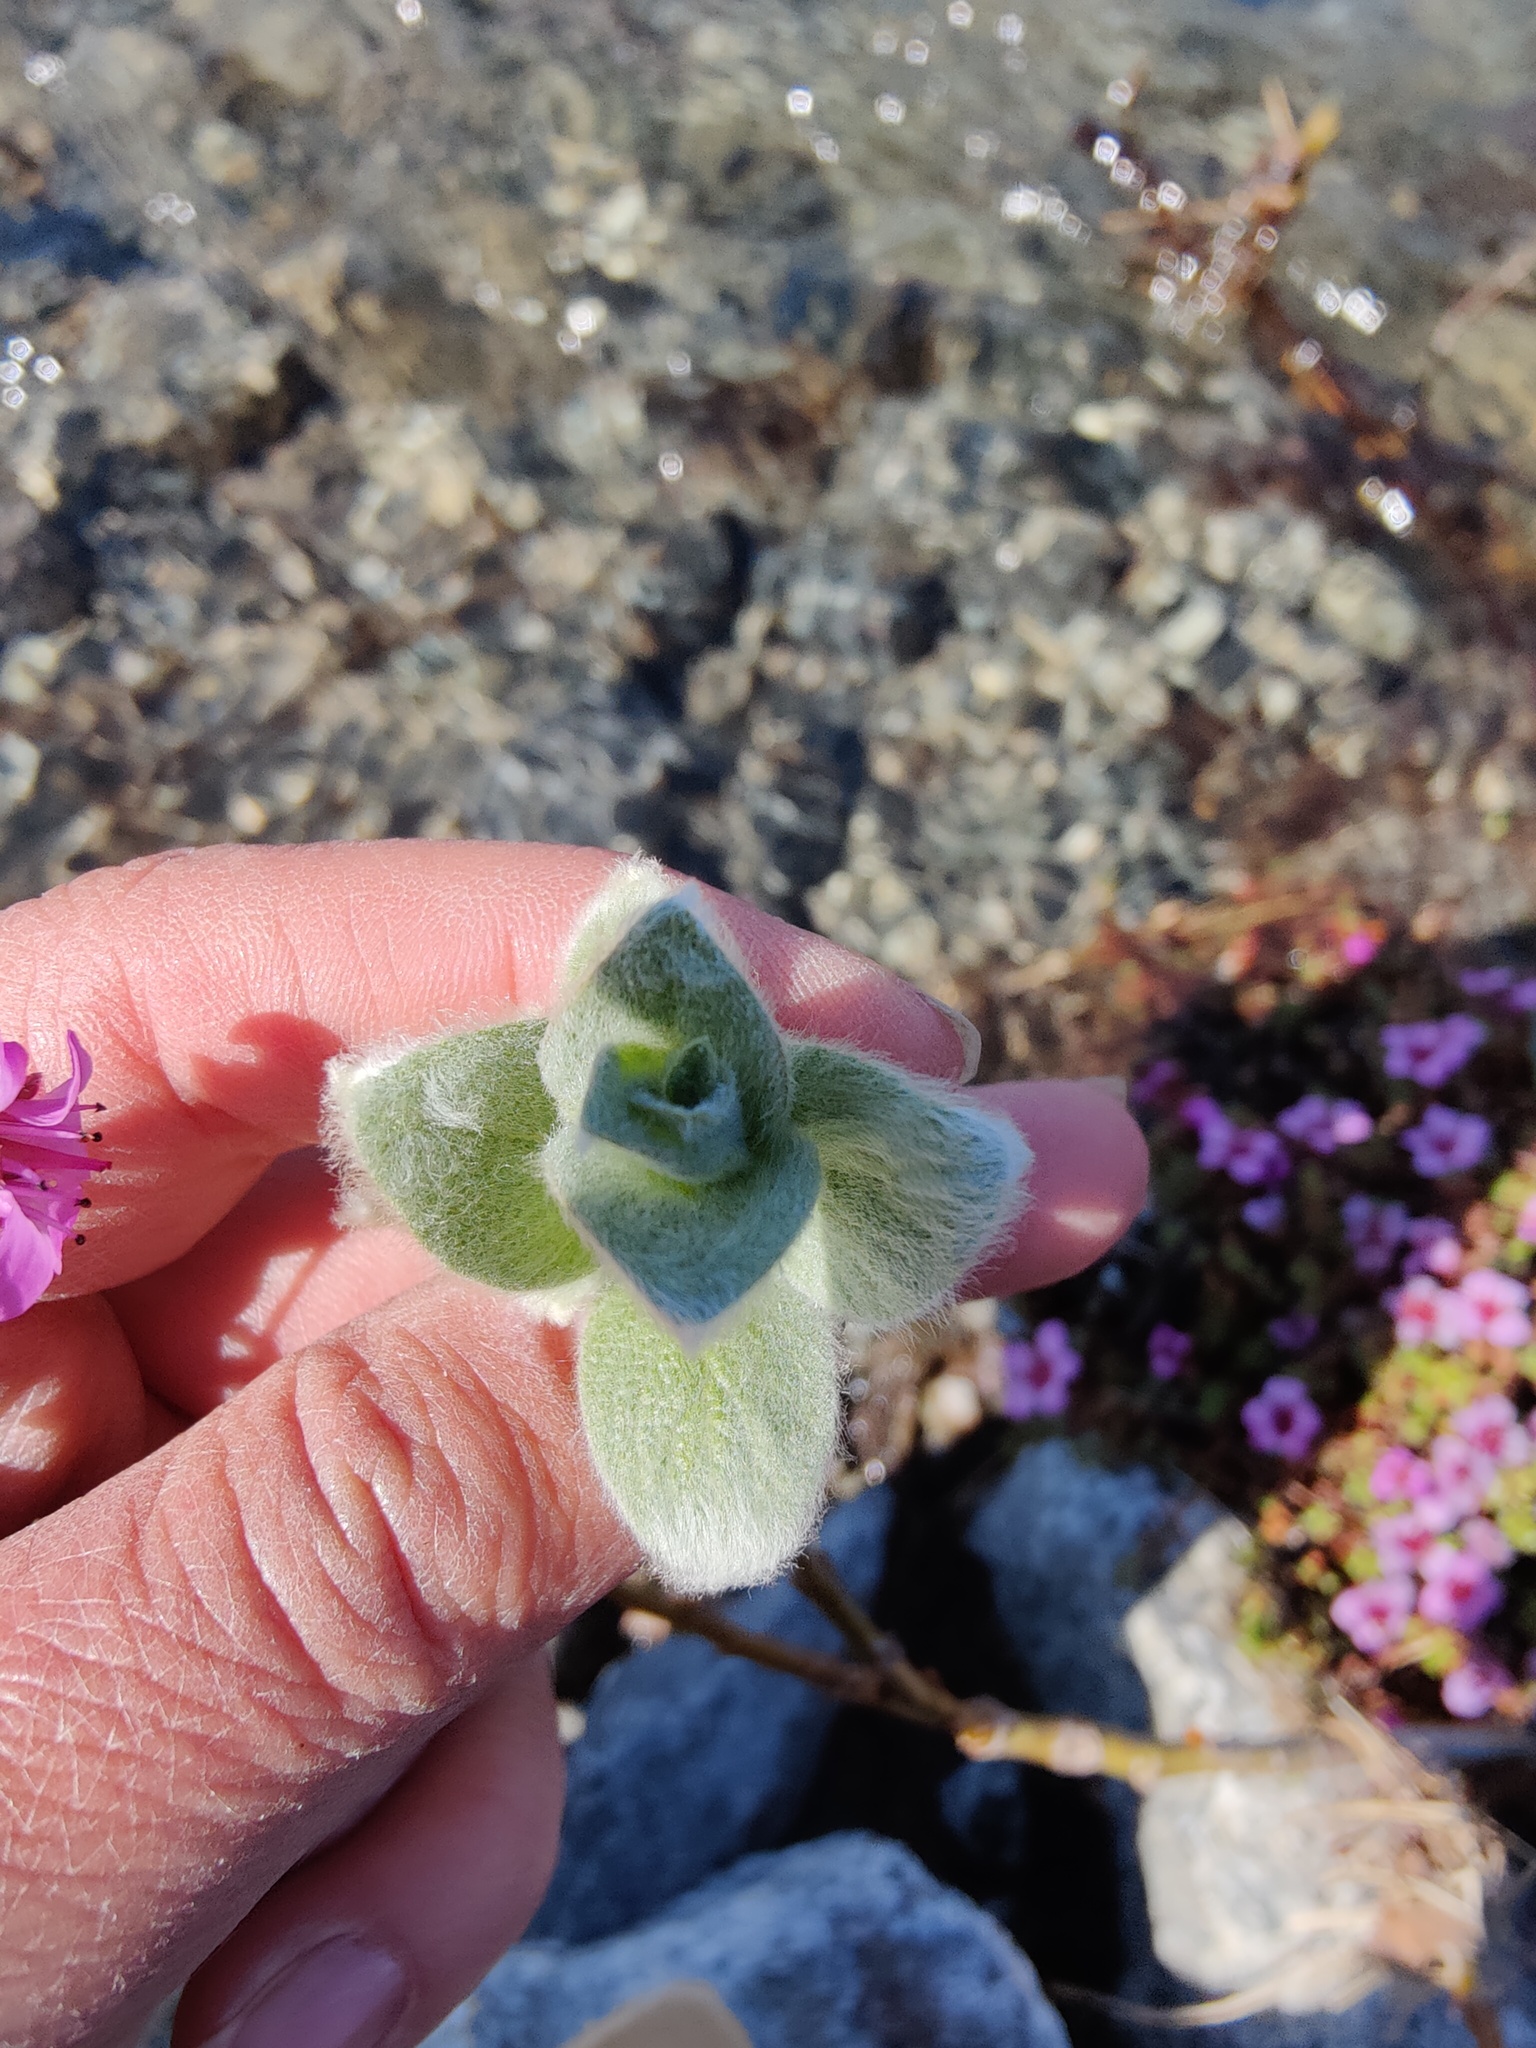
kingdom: Plantae
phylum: Tracheophyta
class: Magnoliopsida
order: Malpighiales
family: Salicaceae
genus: Salix
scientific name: Salix lanata
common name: Woolly willow
